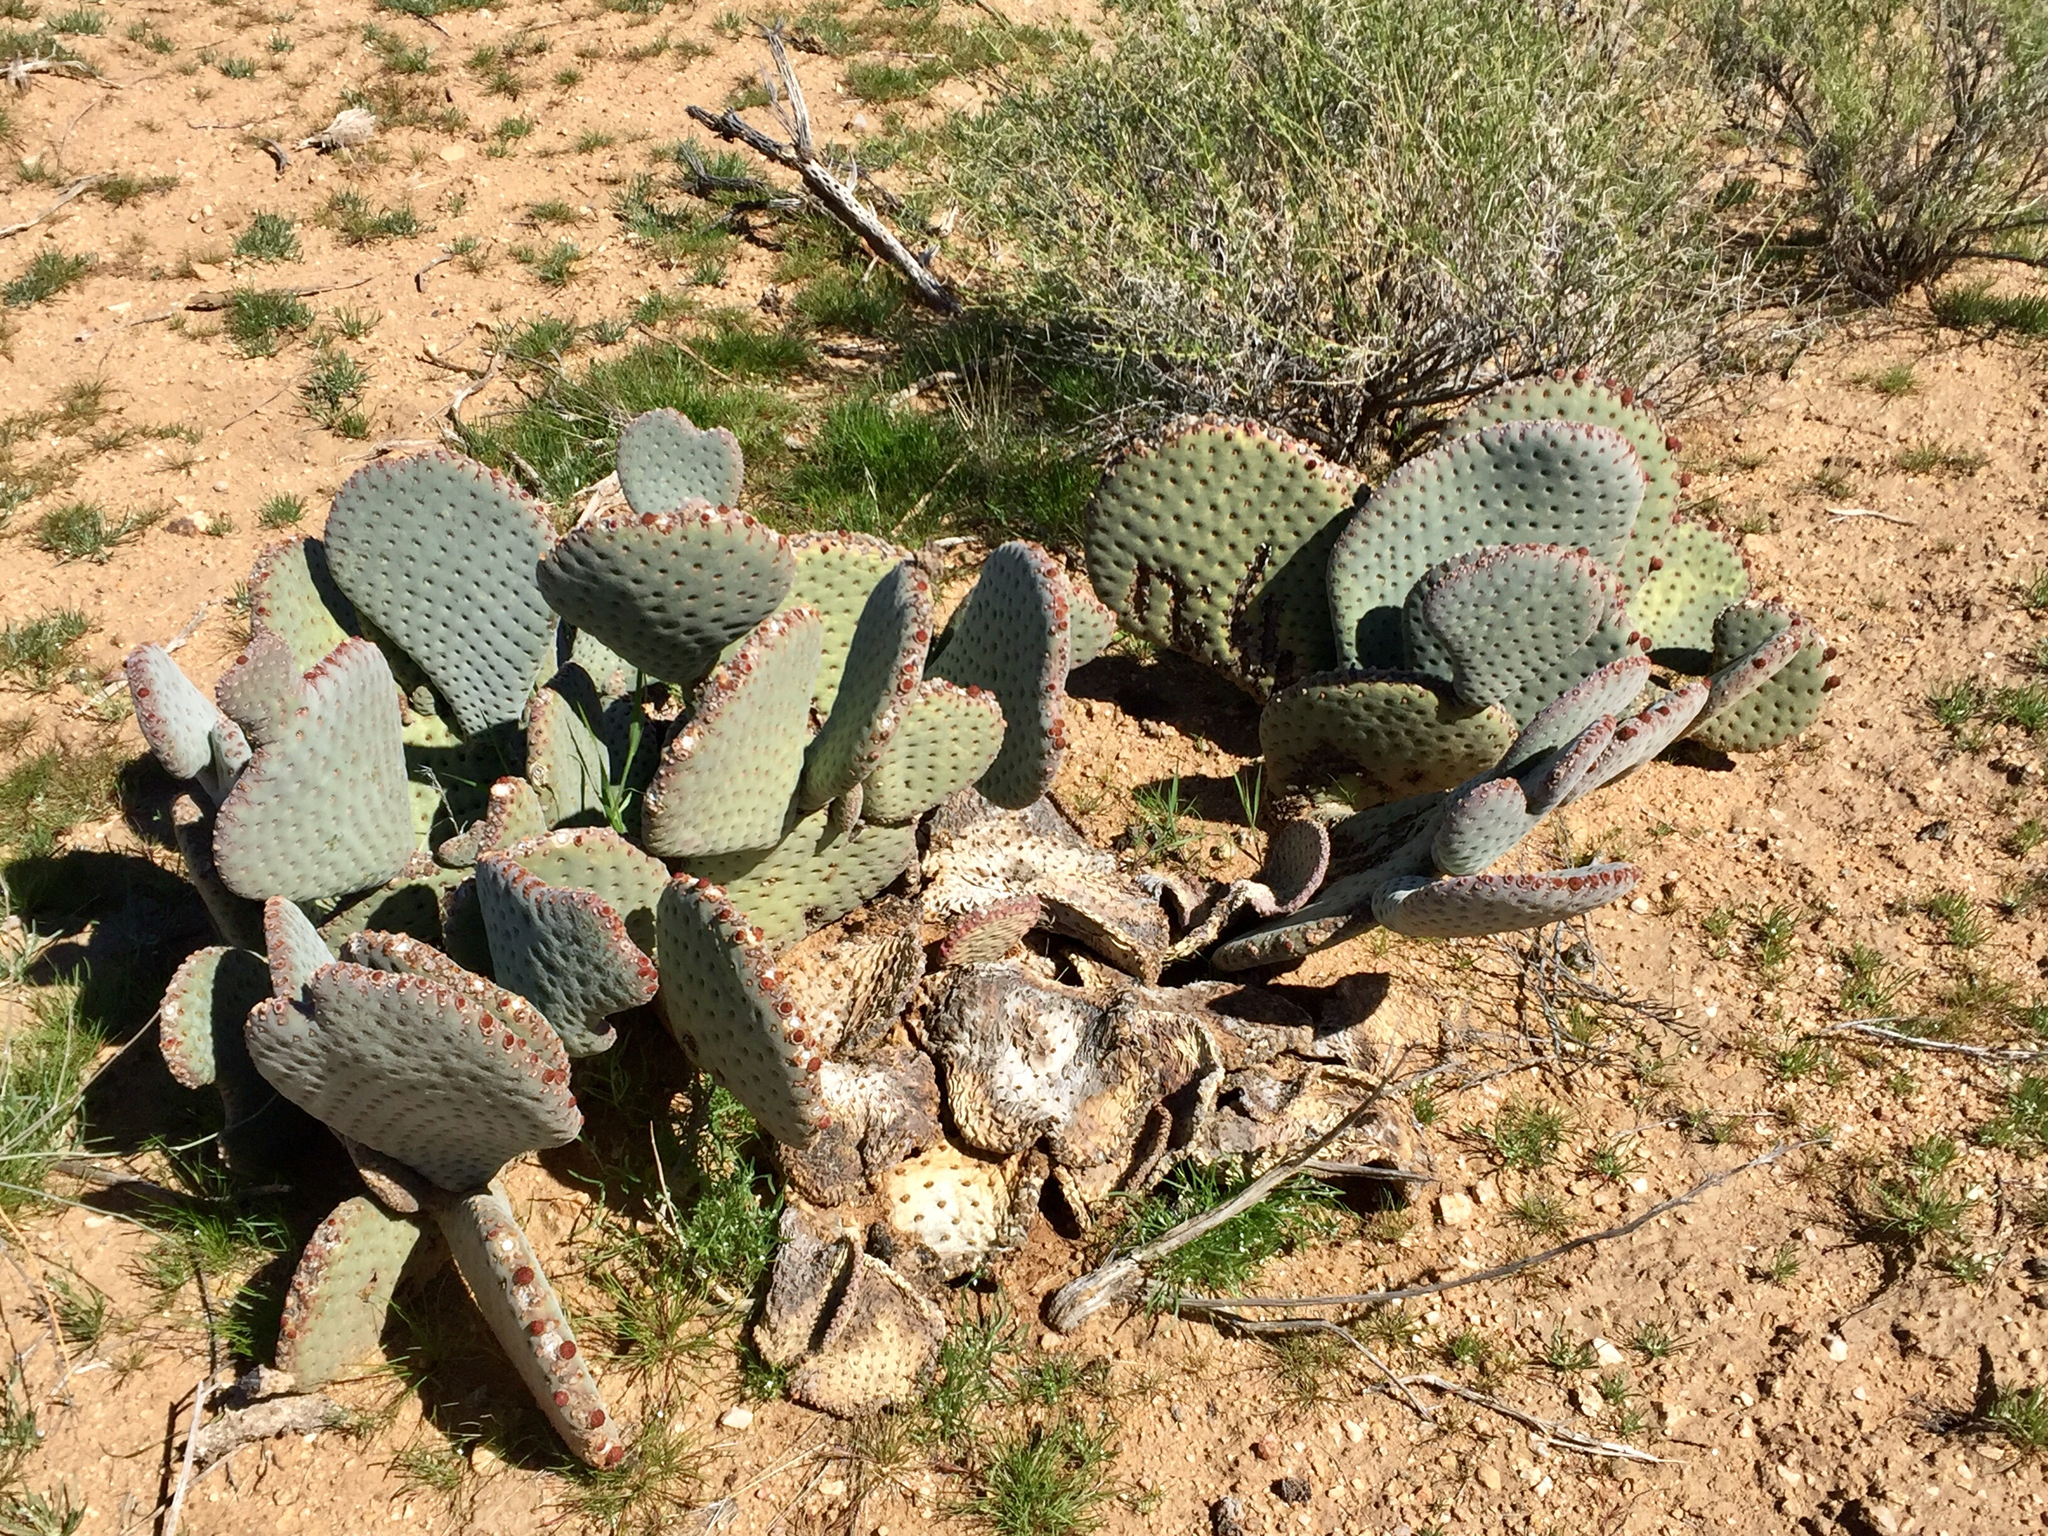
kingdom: Plantae
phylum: Tracheophyta
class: Magnoliopsida
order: Caryophyllales
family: Cactaceae
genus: Opuntia
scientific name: Opuntia basilaris
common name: Beavertail prickly-pear
